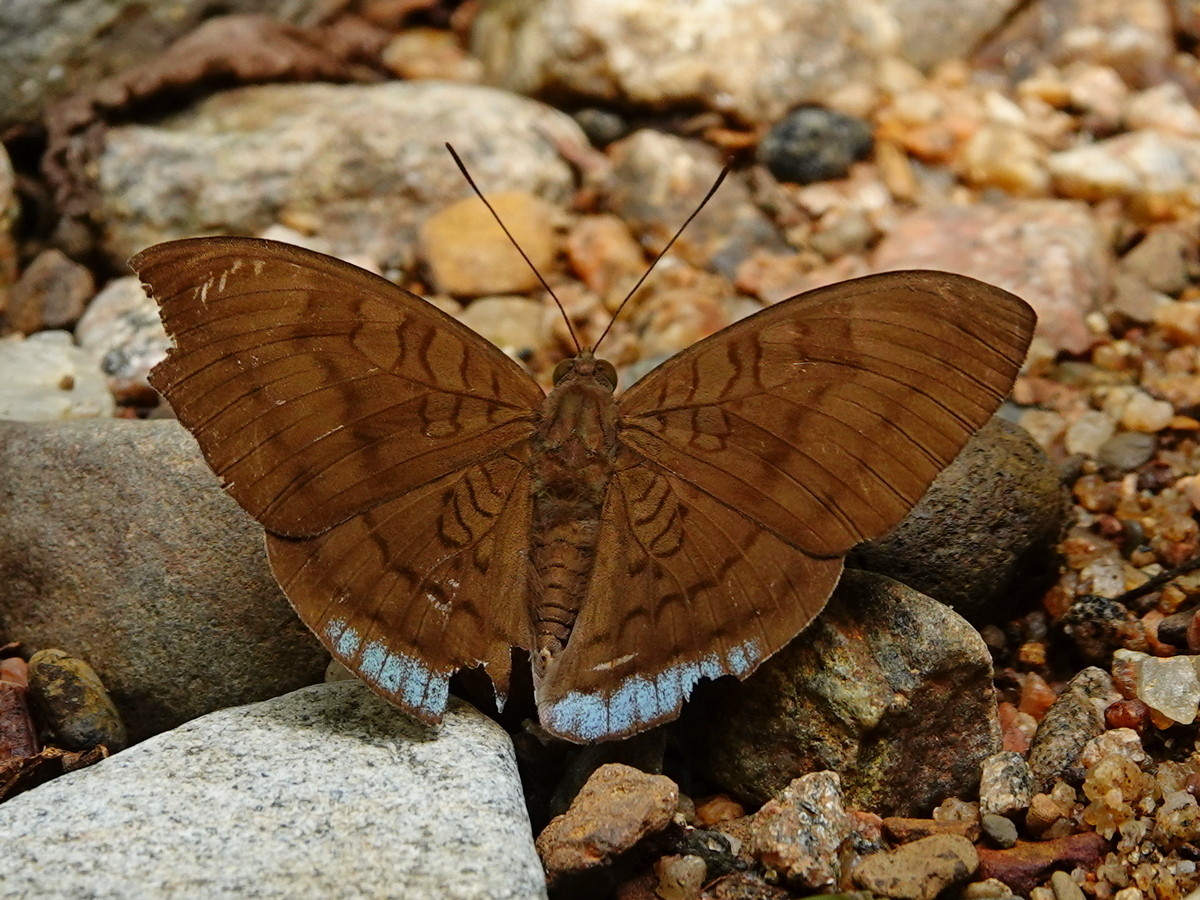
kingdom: Animalia
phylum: Arthropoda
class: Insecta
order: Lepidoptera
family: Nymphalidae
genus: Tanaecia
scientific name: Tanaecia julii
